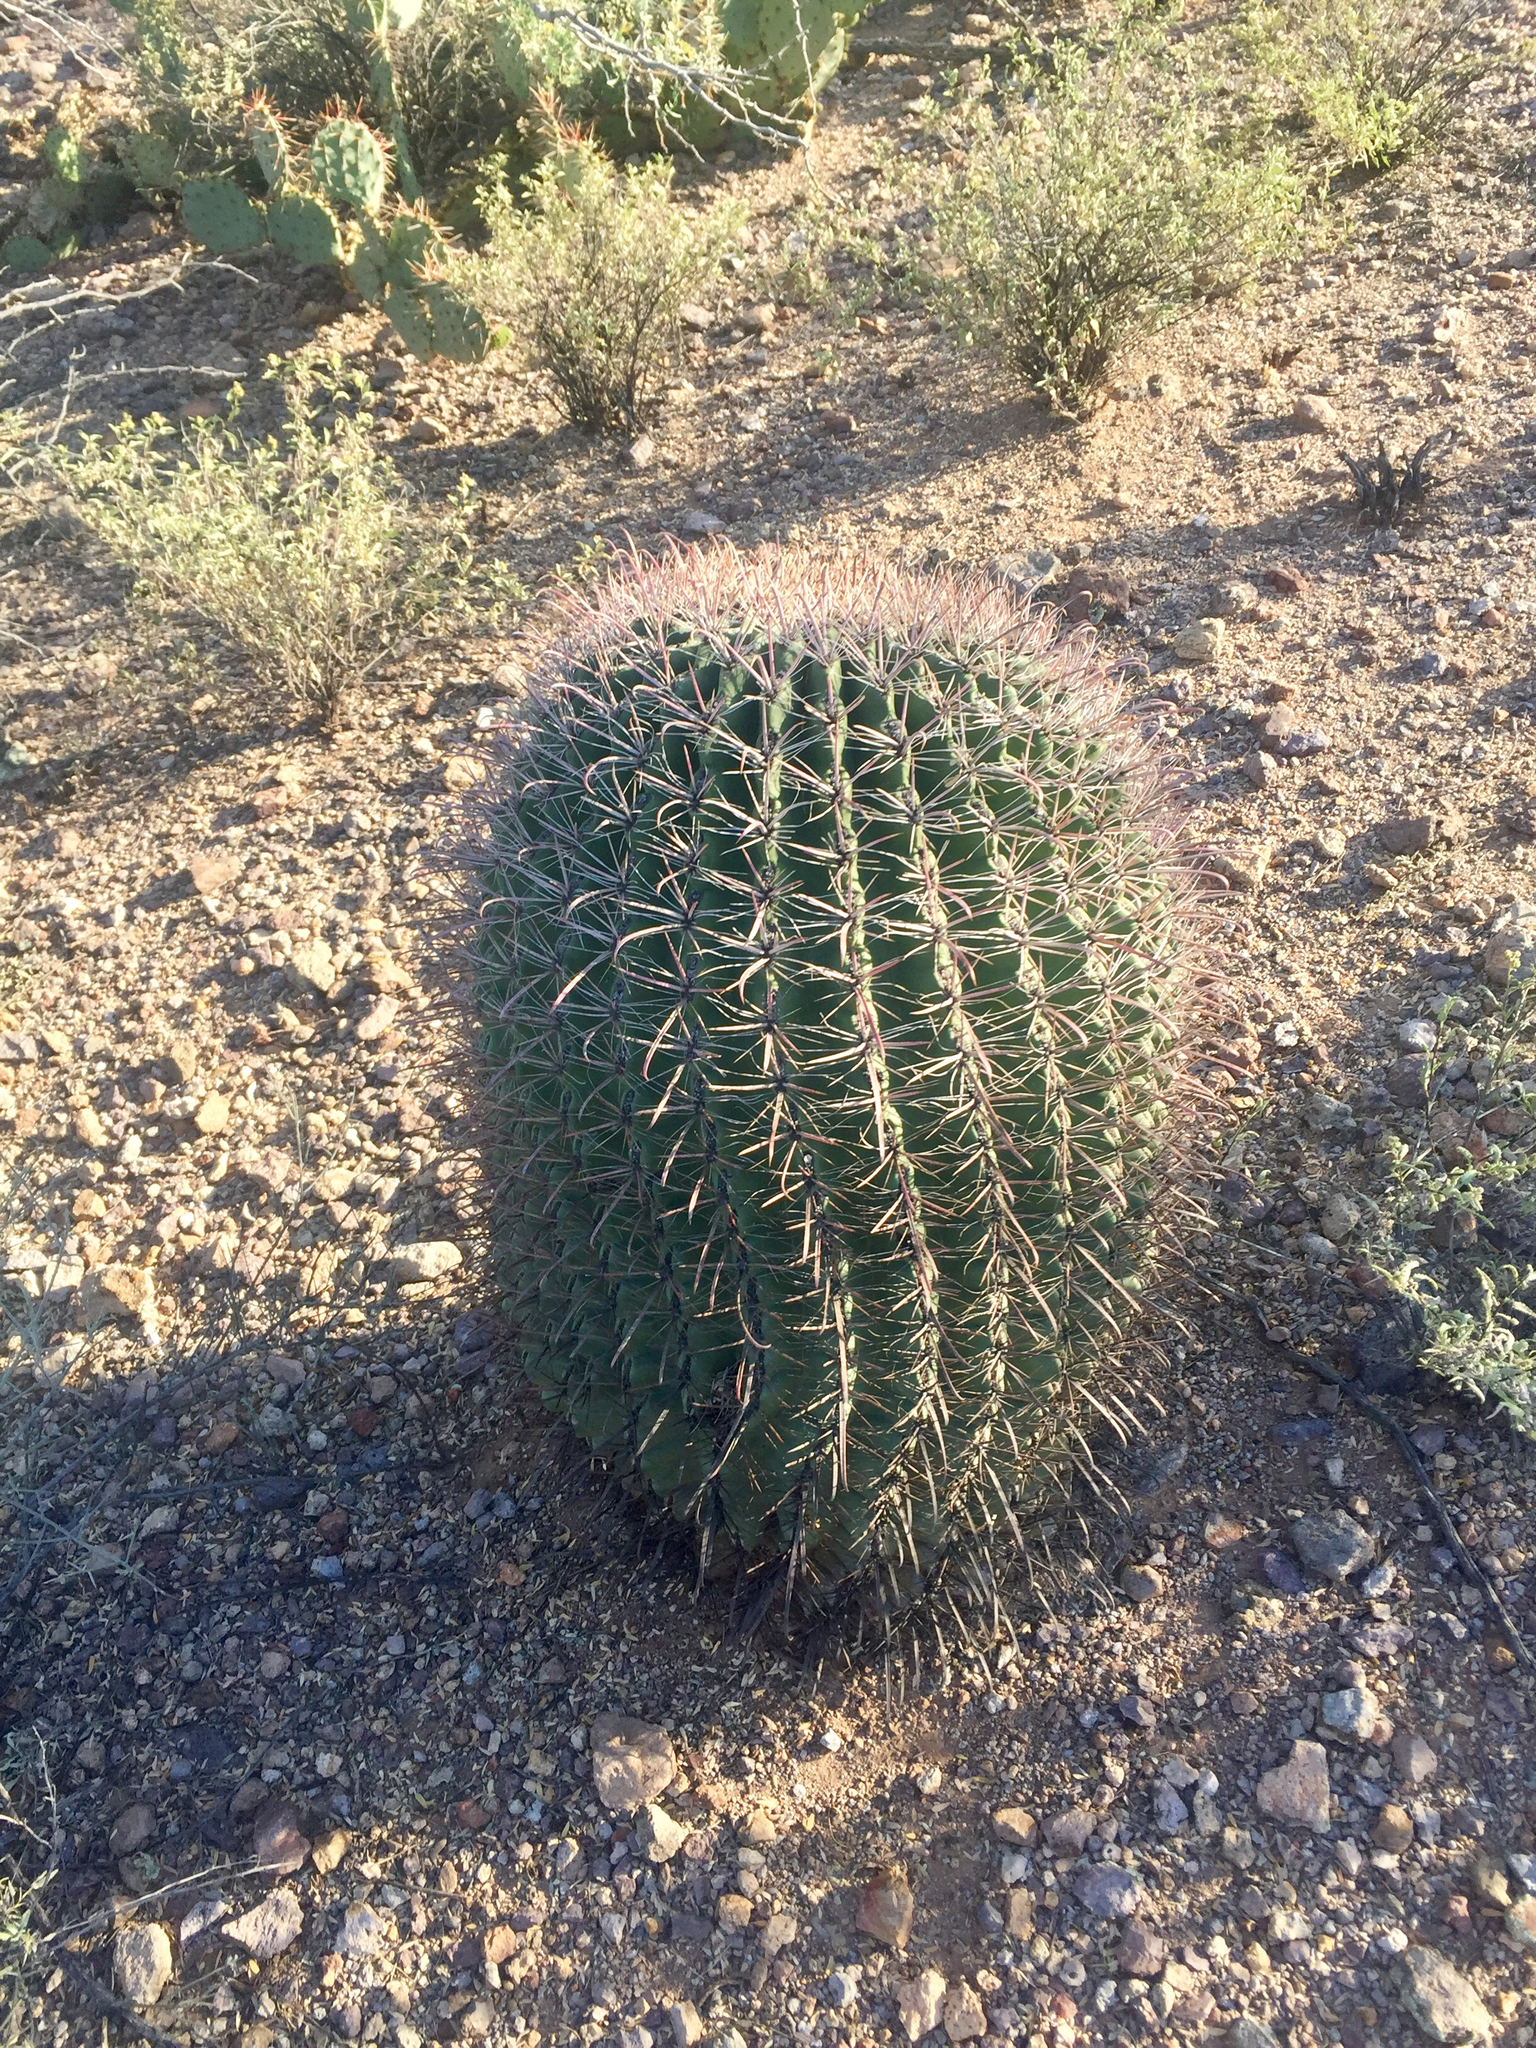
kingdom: Plantae
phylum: Tracheophyta
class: Magnoliopsida
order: Caryophyllales
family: Cactaceae
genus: Ferocactus
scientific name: Ferocactus wislizeni
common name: Candy barrel cactus
